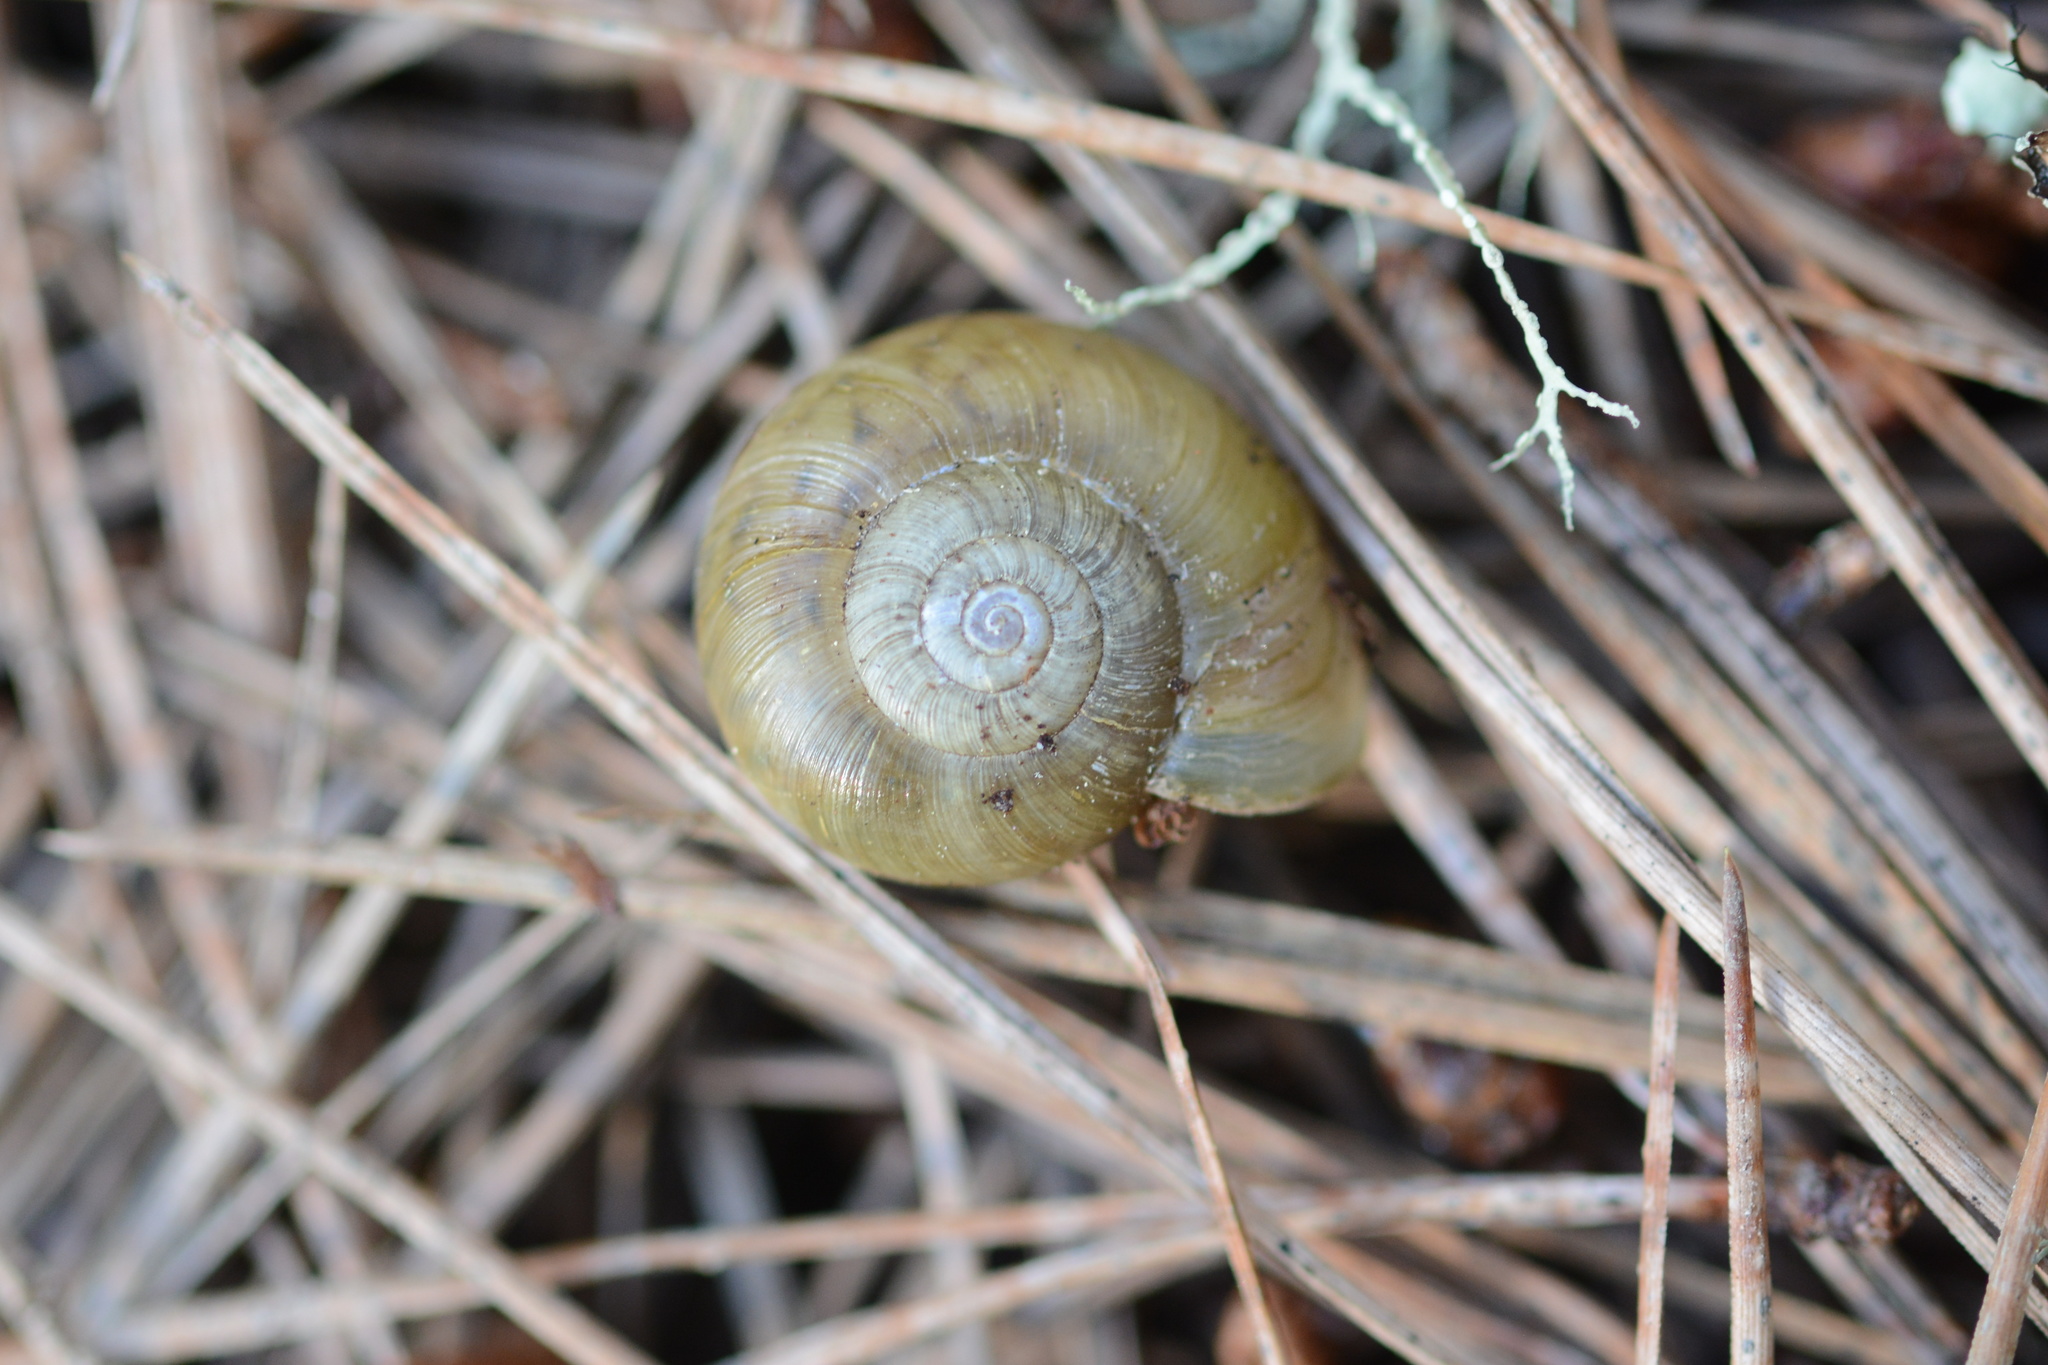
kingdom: Animalia
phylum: Mollusca
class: Gastropoda
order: Stylommatophora
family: Haplotrematidae
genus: Haplotrema
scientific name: Haplotrema minimum
